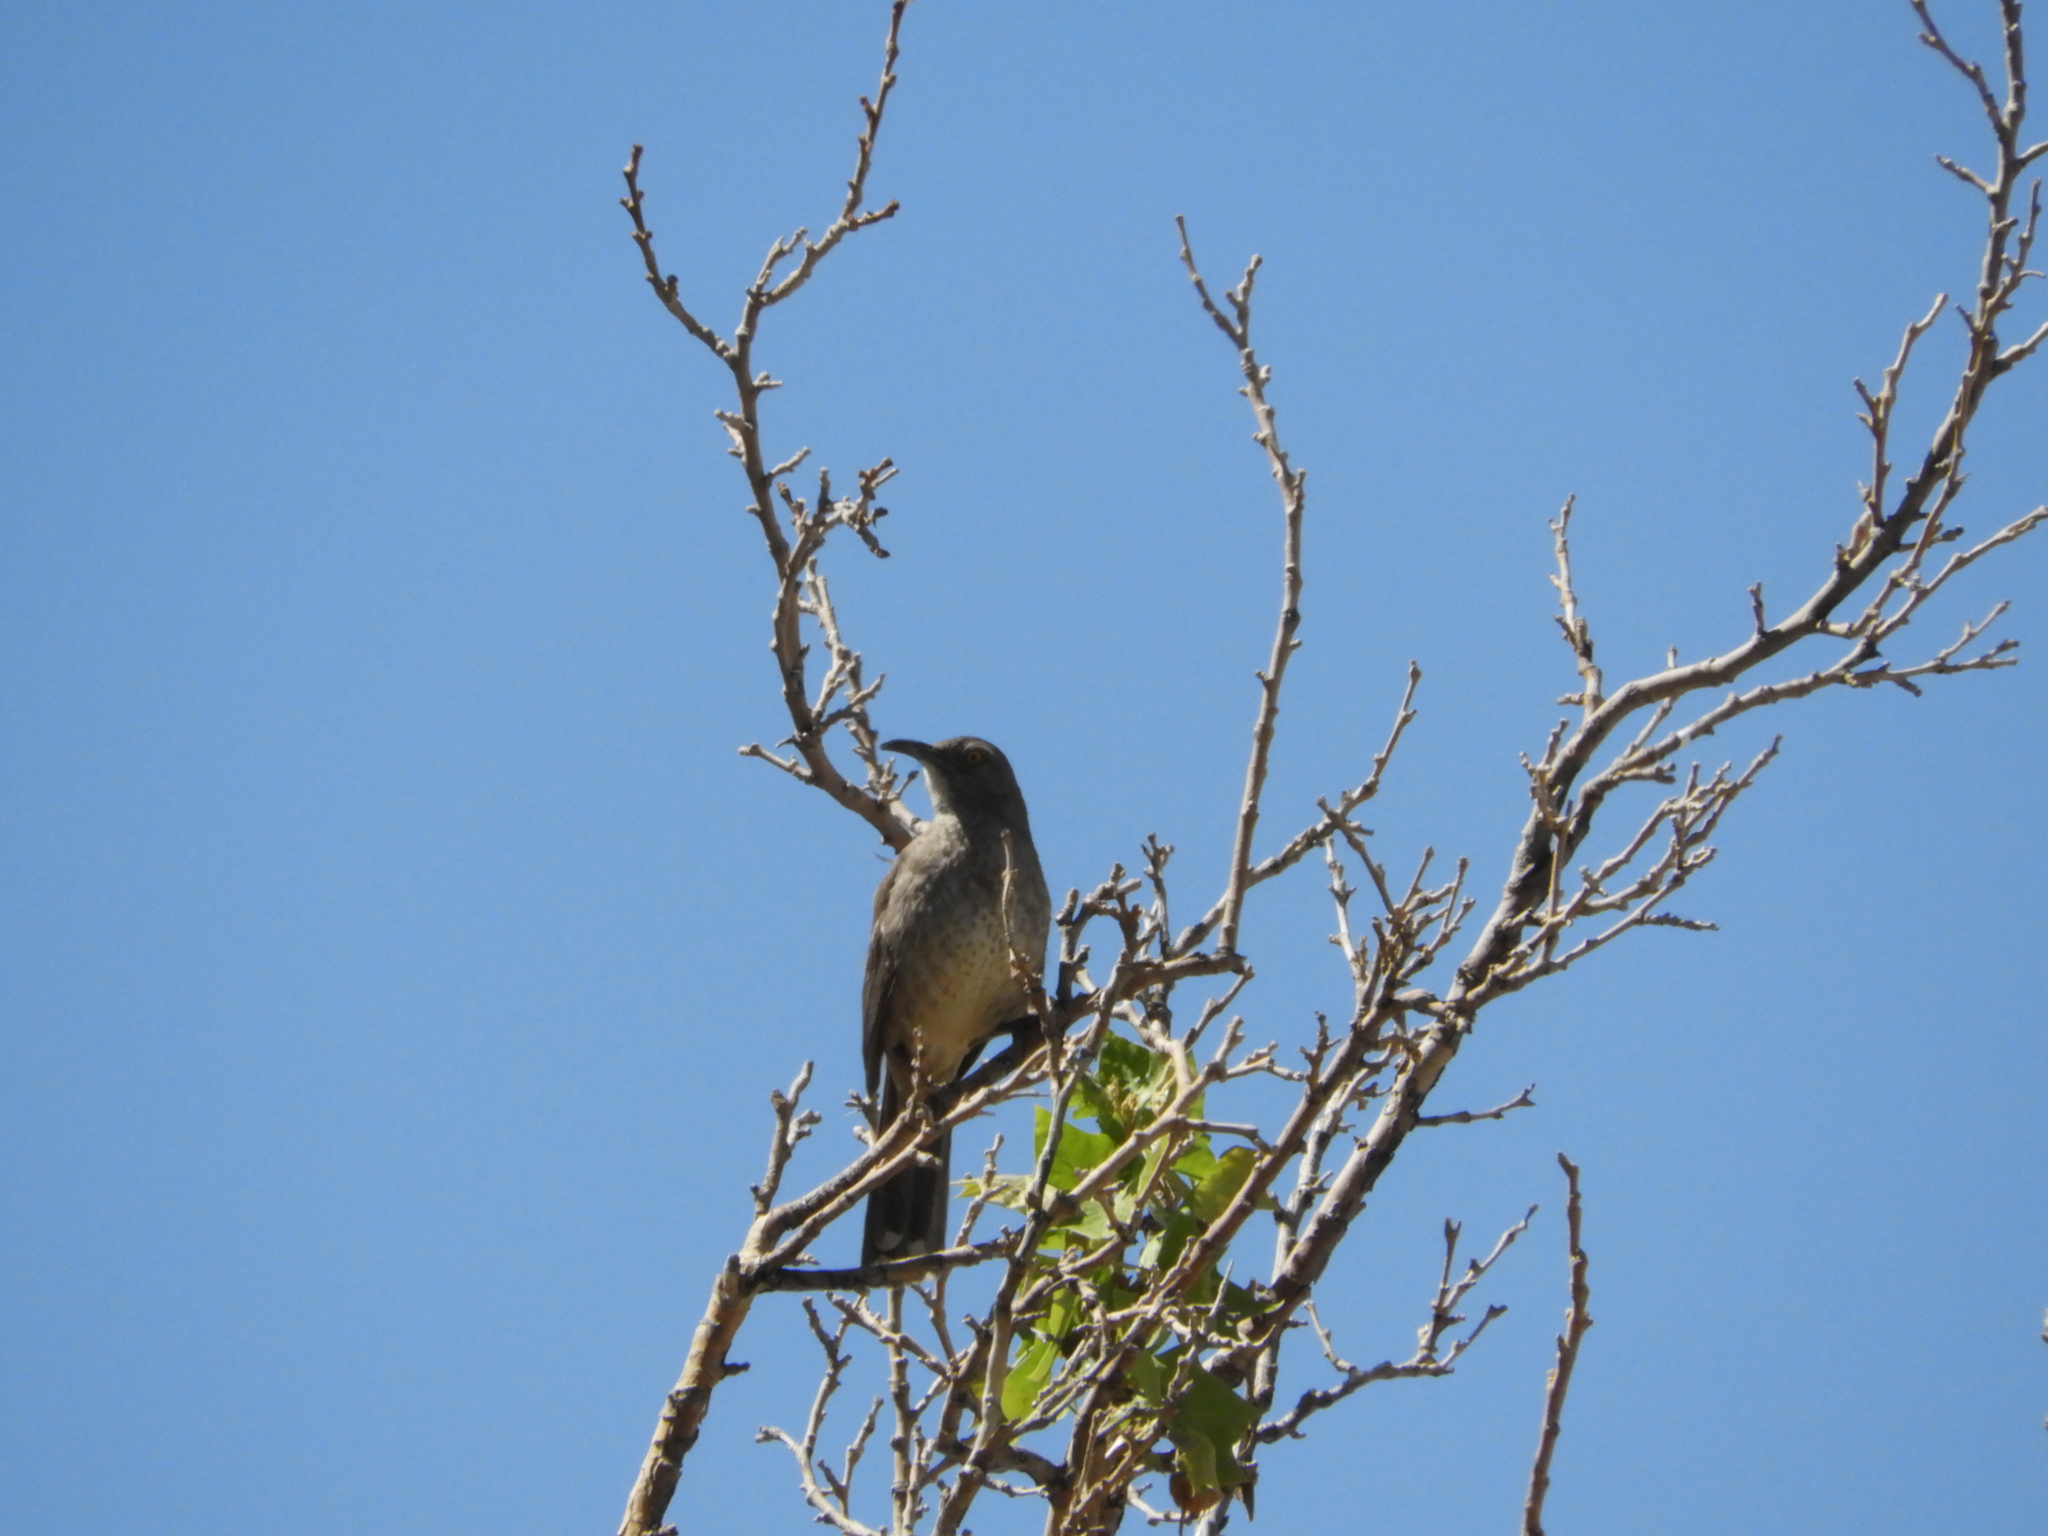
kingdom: Animalia
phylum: Chordata
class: Aves
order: Passeriformes
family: Mimidae
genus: Toxostoma
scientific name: Toxostoma curvirostre
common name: Curve-billed thrasher
